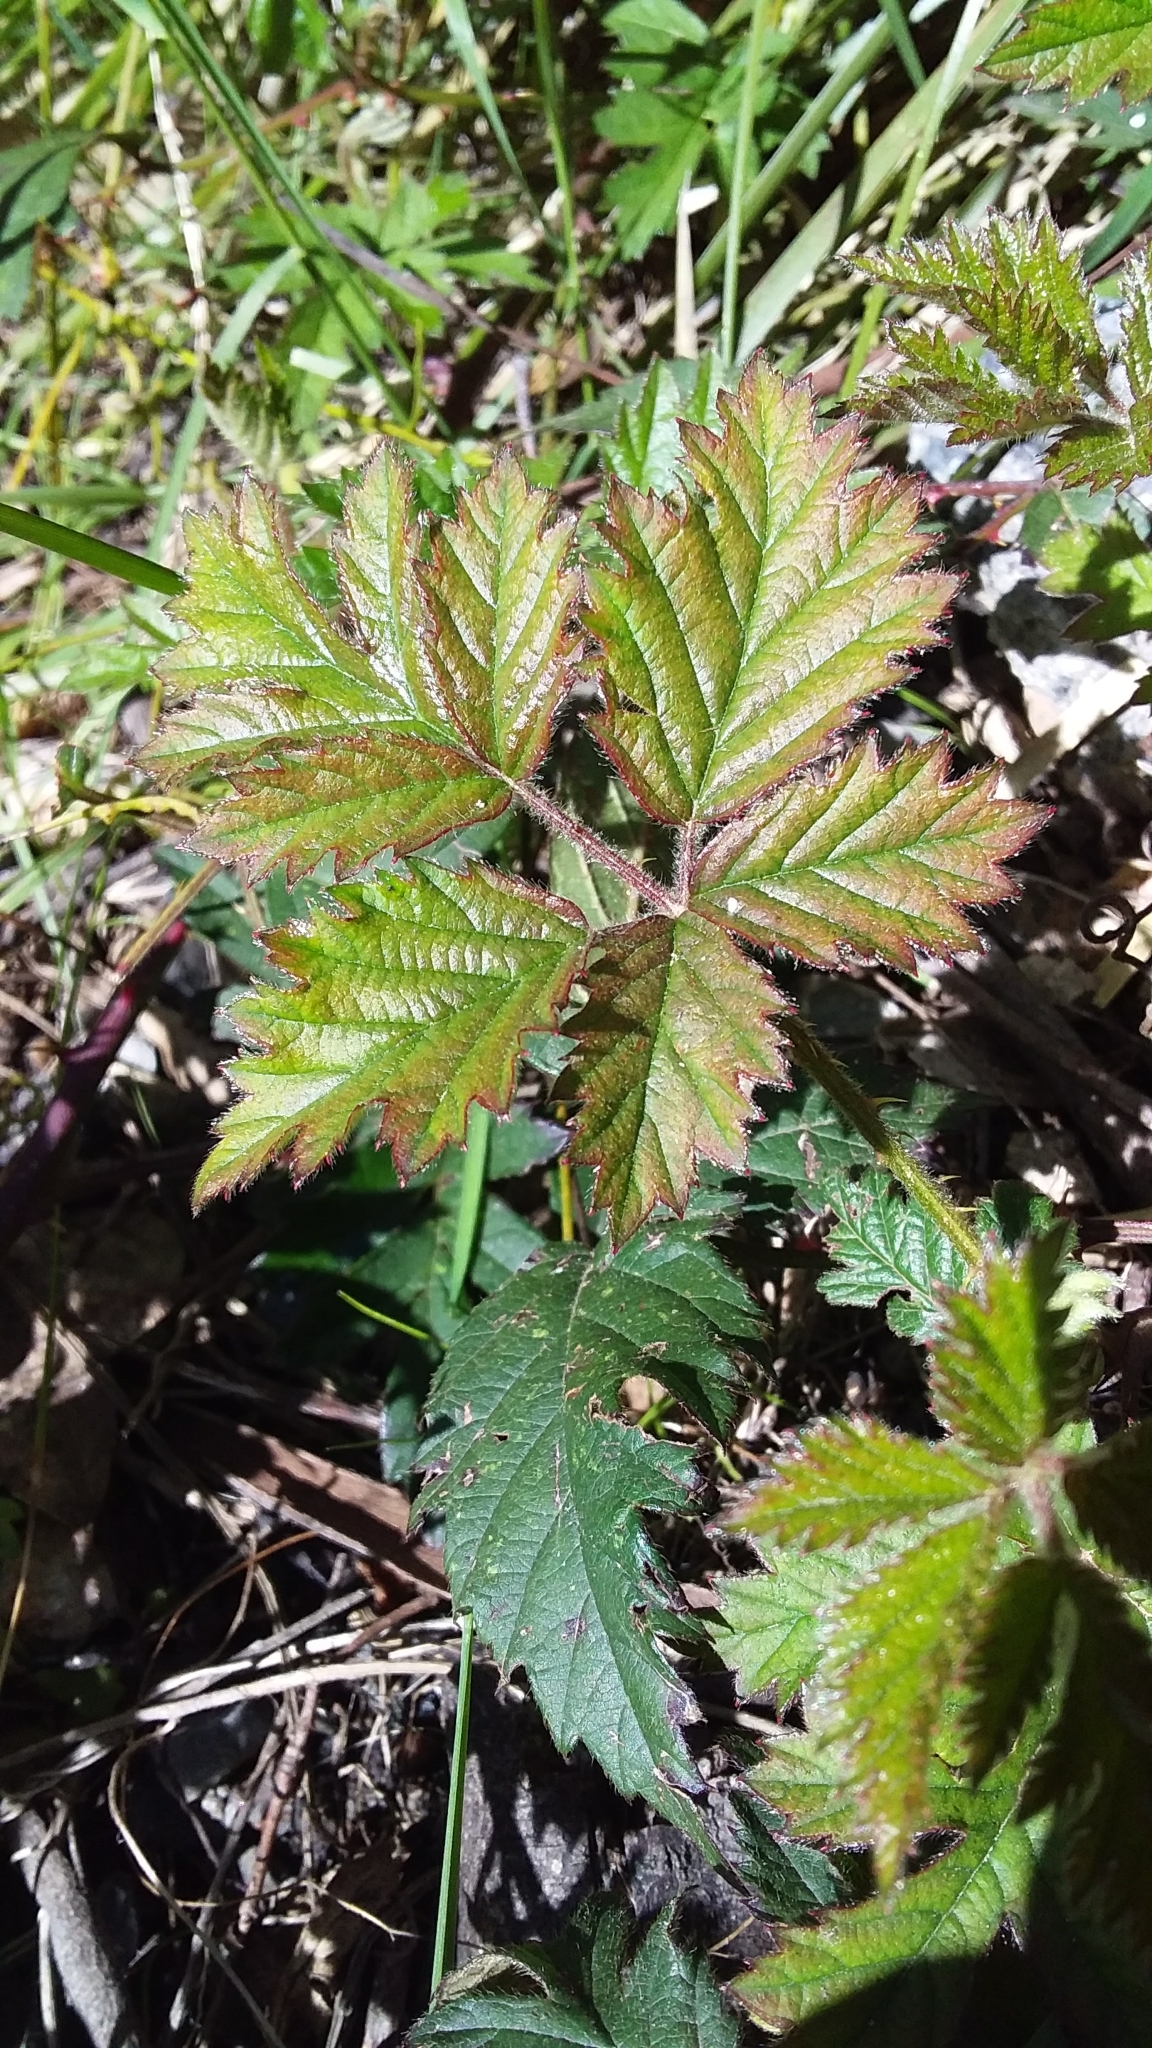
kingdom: Plantae
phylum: Tracheophyta
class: Magnoliopsida
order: Rosales
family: Rosaceae
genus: Rubus
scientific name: Rubus laciniatus
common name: Evergreen blackberry
